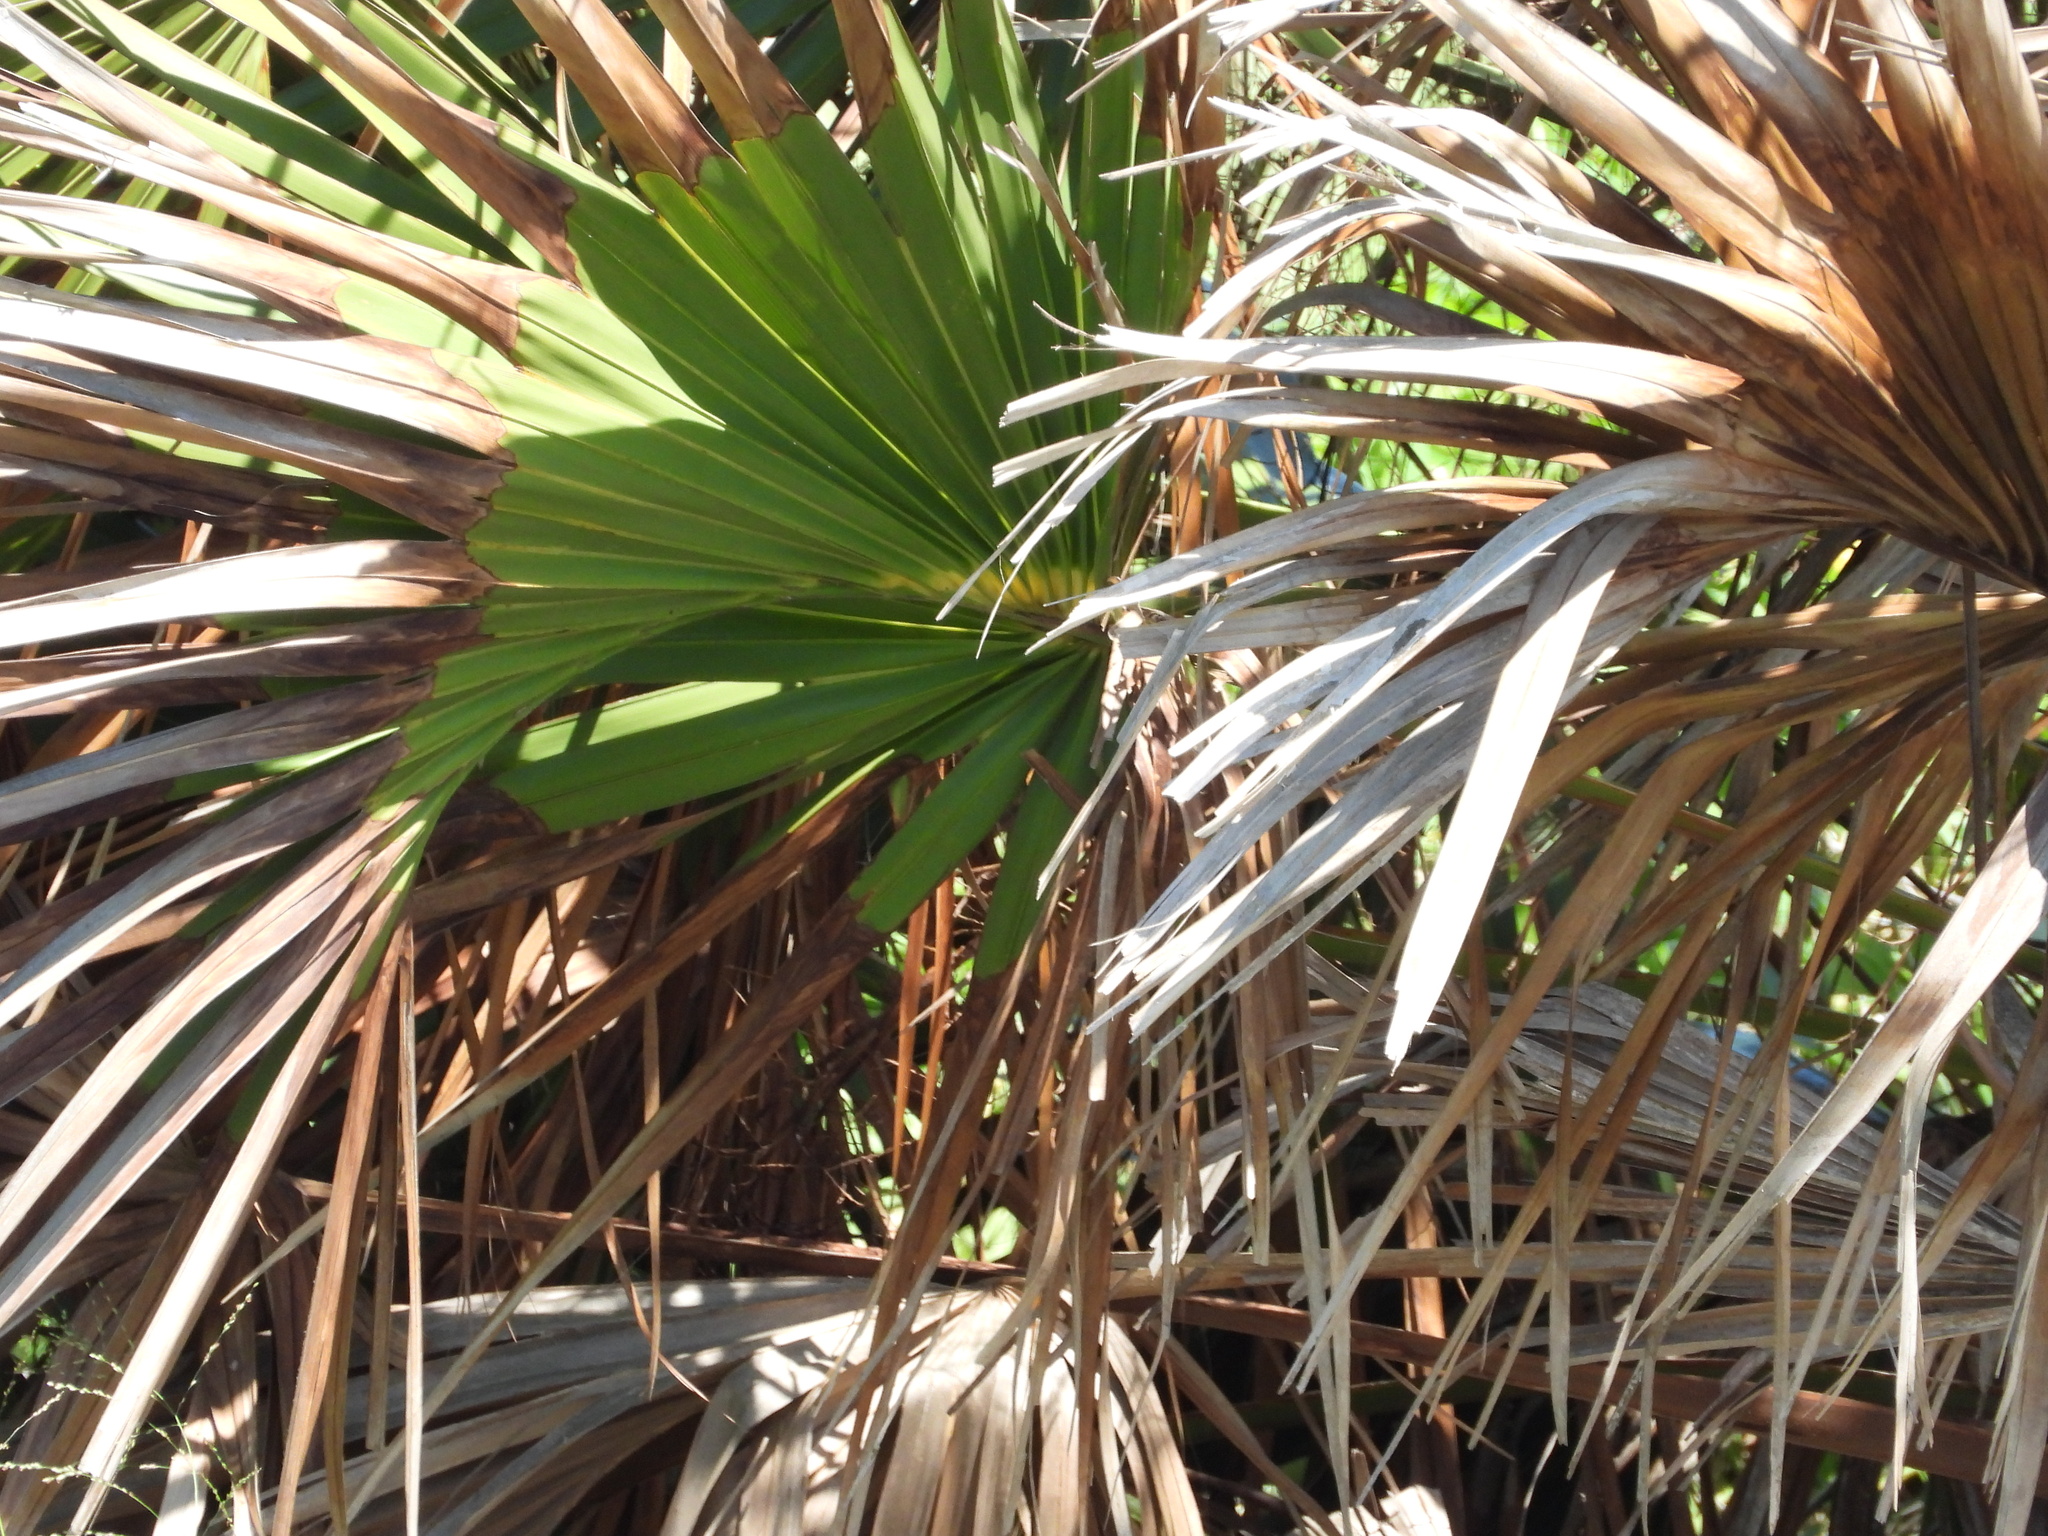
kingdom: Plantae
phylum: Tracheophyta
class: Liliopsida
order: Arecales
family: Arecaceae
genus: Sabal
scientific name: Sabal mexicana
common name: Texas palmetto
